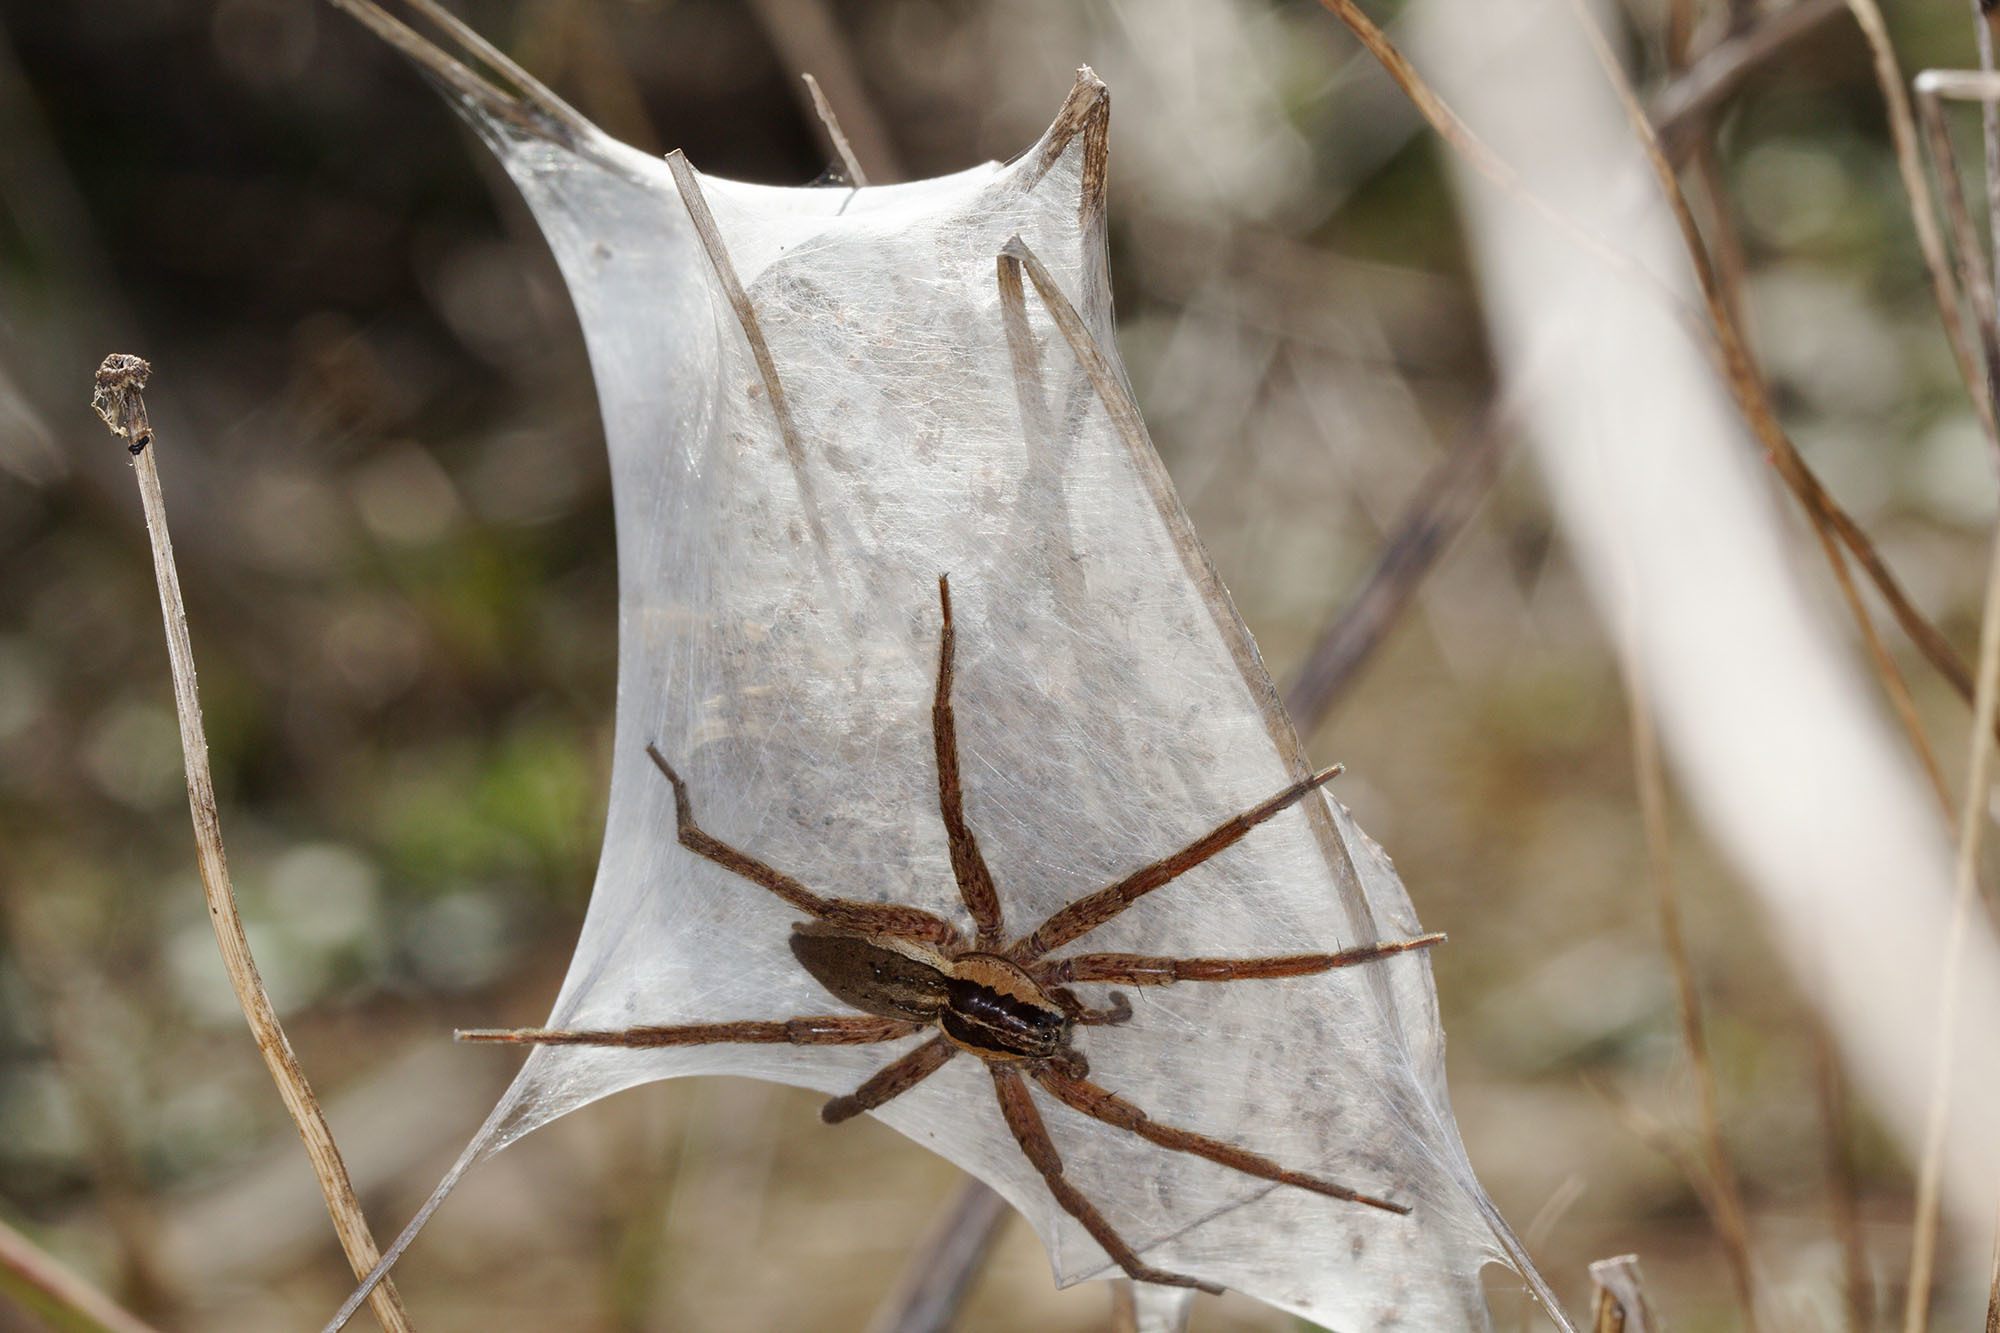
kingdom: Animalia
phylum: Arthropoda
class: Arachnida
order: Araneae
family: Pisauridae
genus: Dolomedes
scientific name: Dolomedes minor
